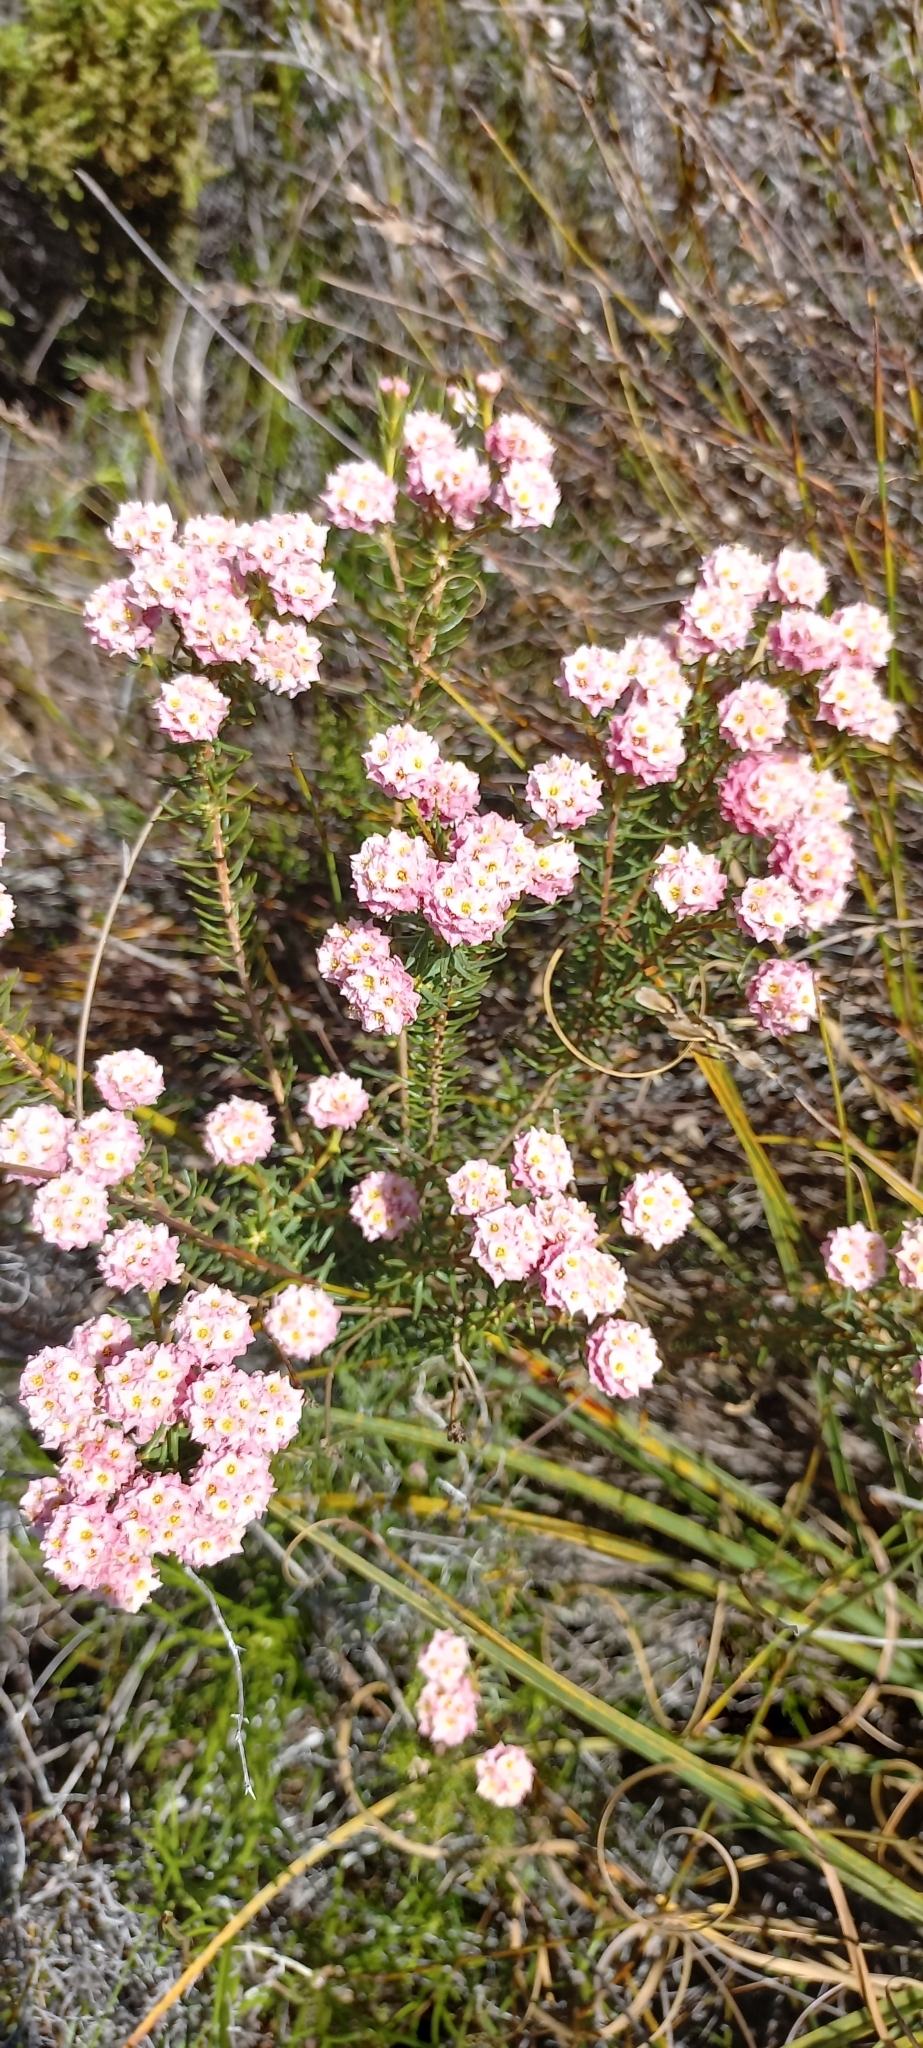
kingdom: Plantae
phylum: Tracheophyta
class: Magnoliopsida
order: Malvales
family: Thymelaeaceae
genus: Lachnaea
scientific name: Lachnaea densiflora
